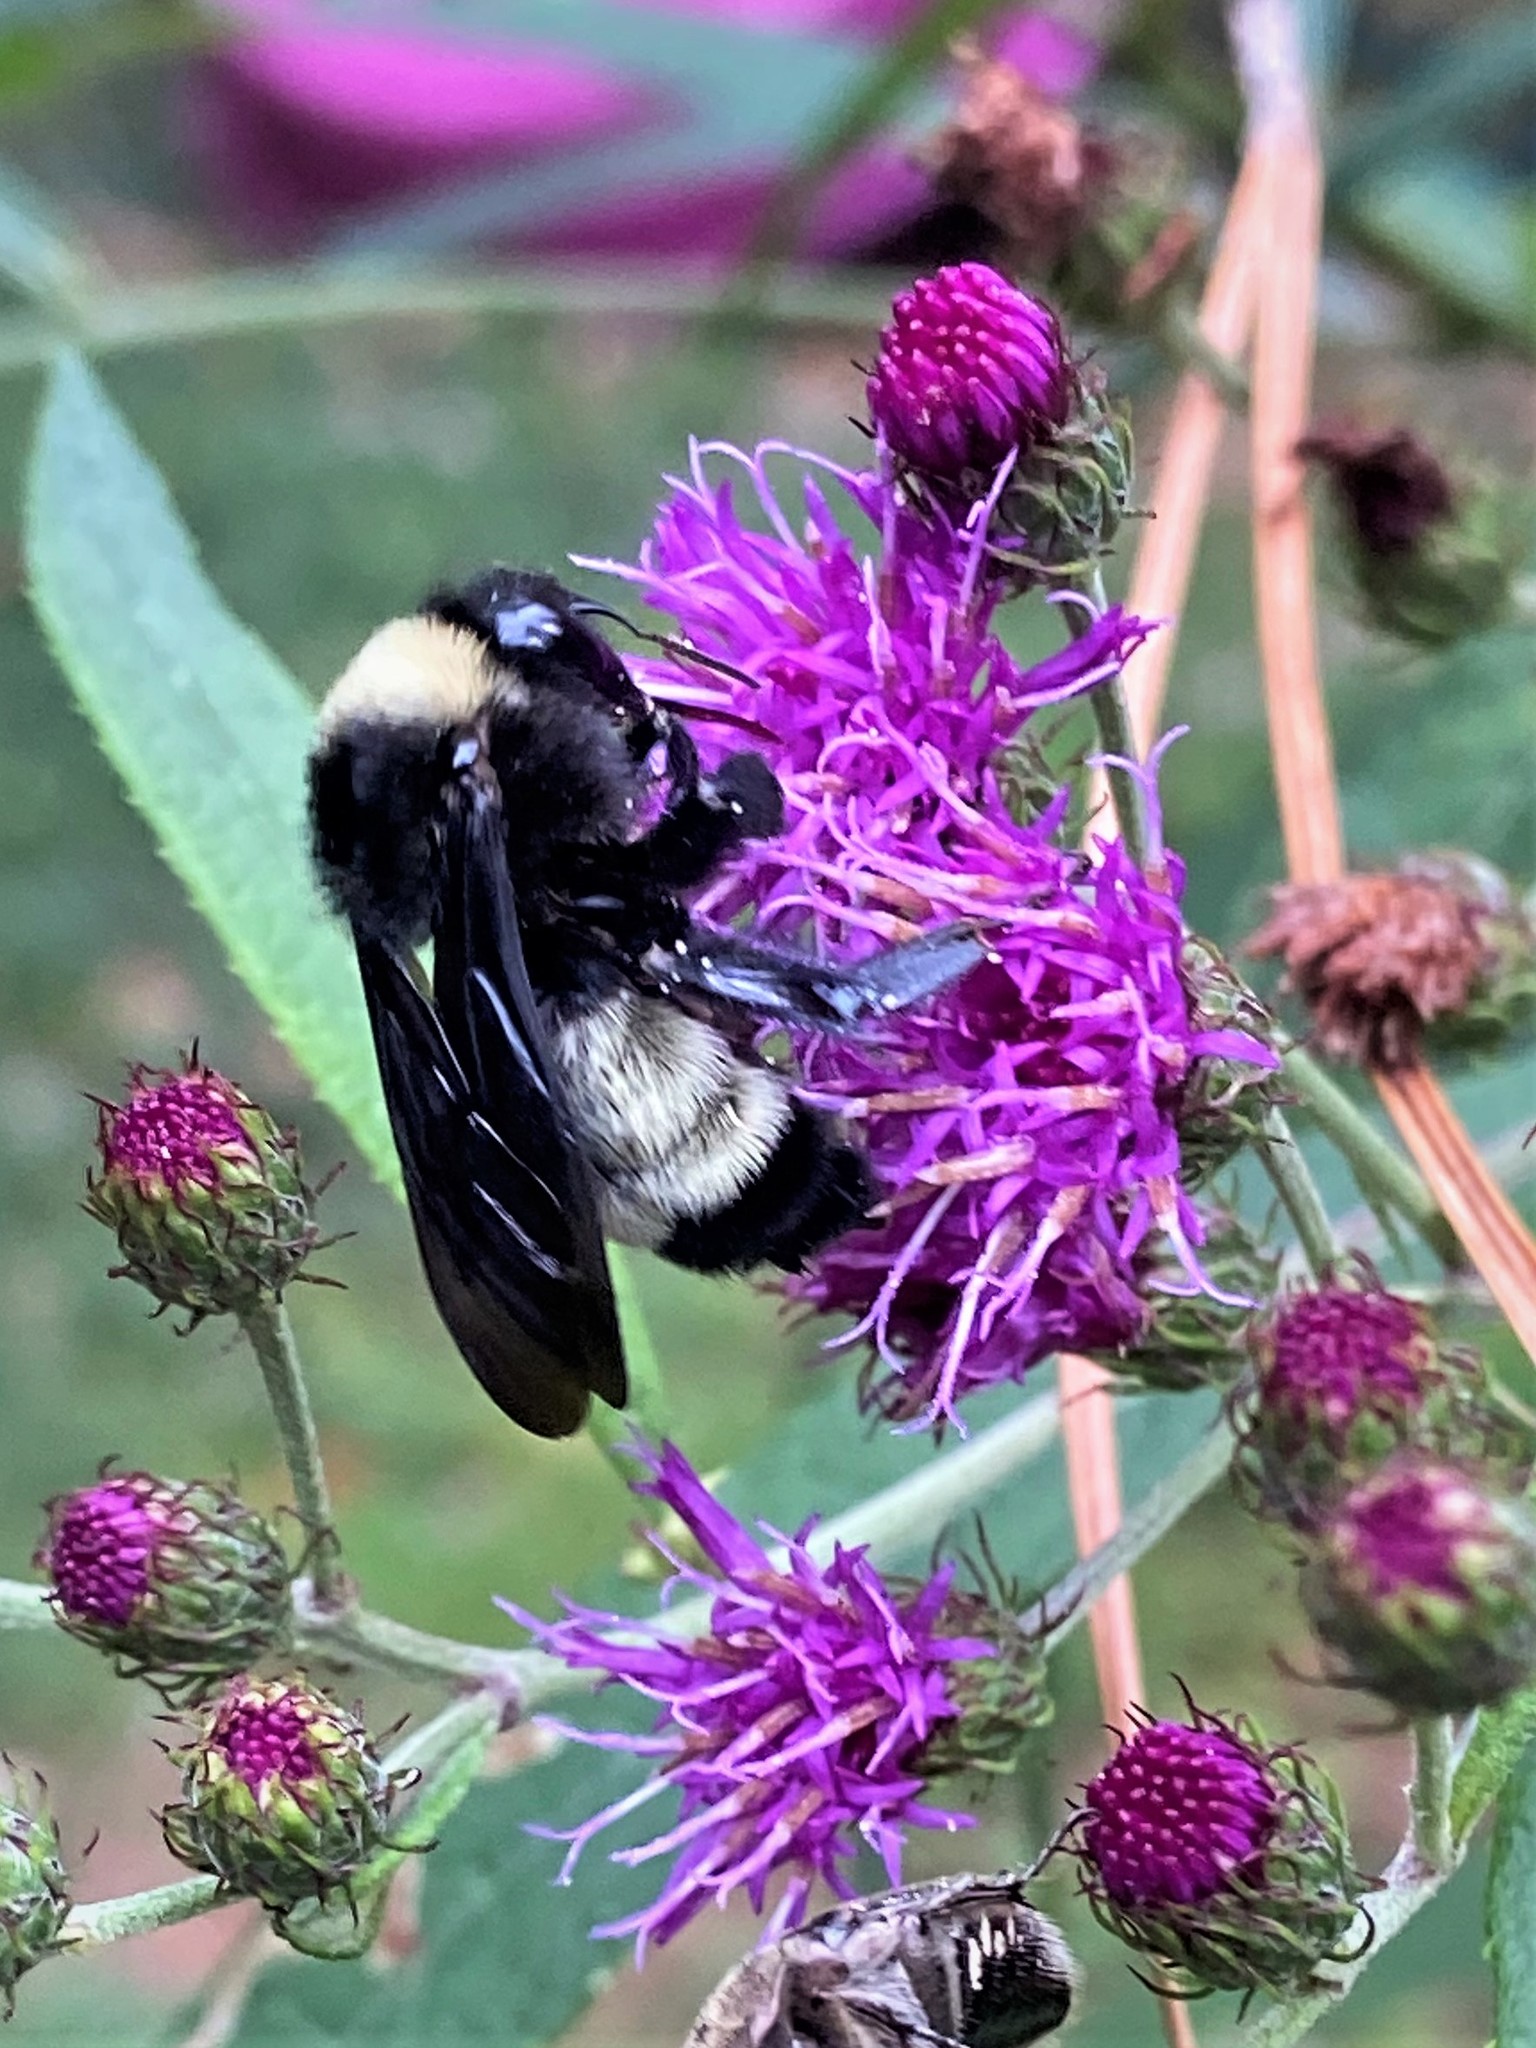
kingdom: Animalia
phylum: Arthropoda
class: Insecta
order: Hymenoptera
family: Apidae
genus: Bombus
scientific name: Bombus pensylvanicus
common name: Bumble bee
